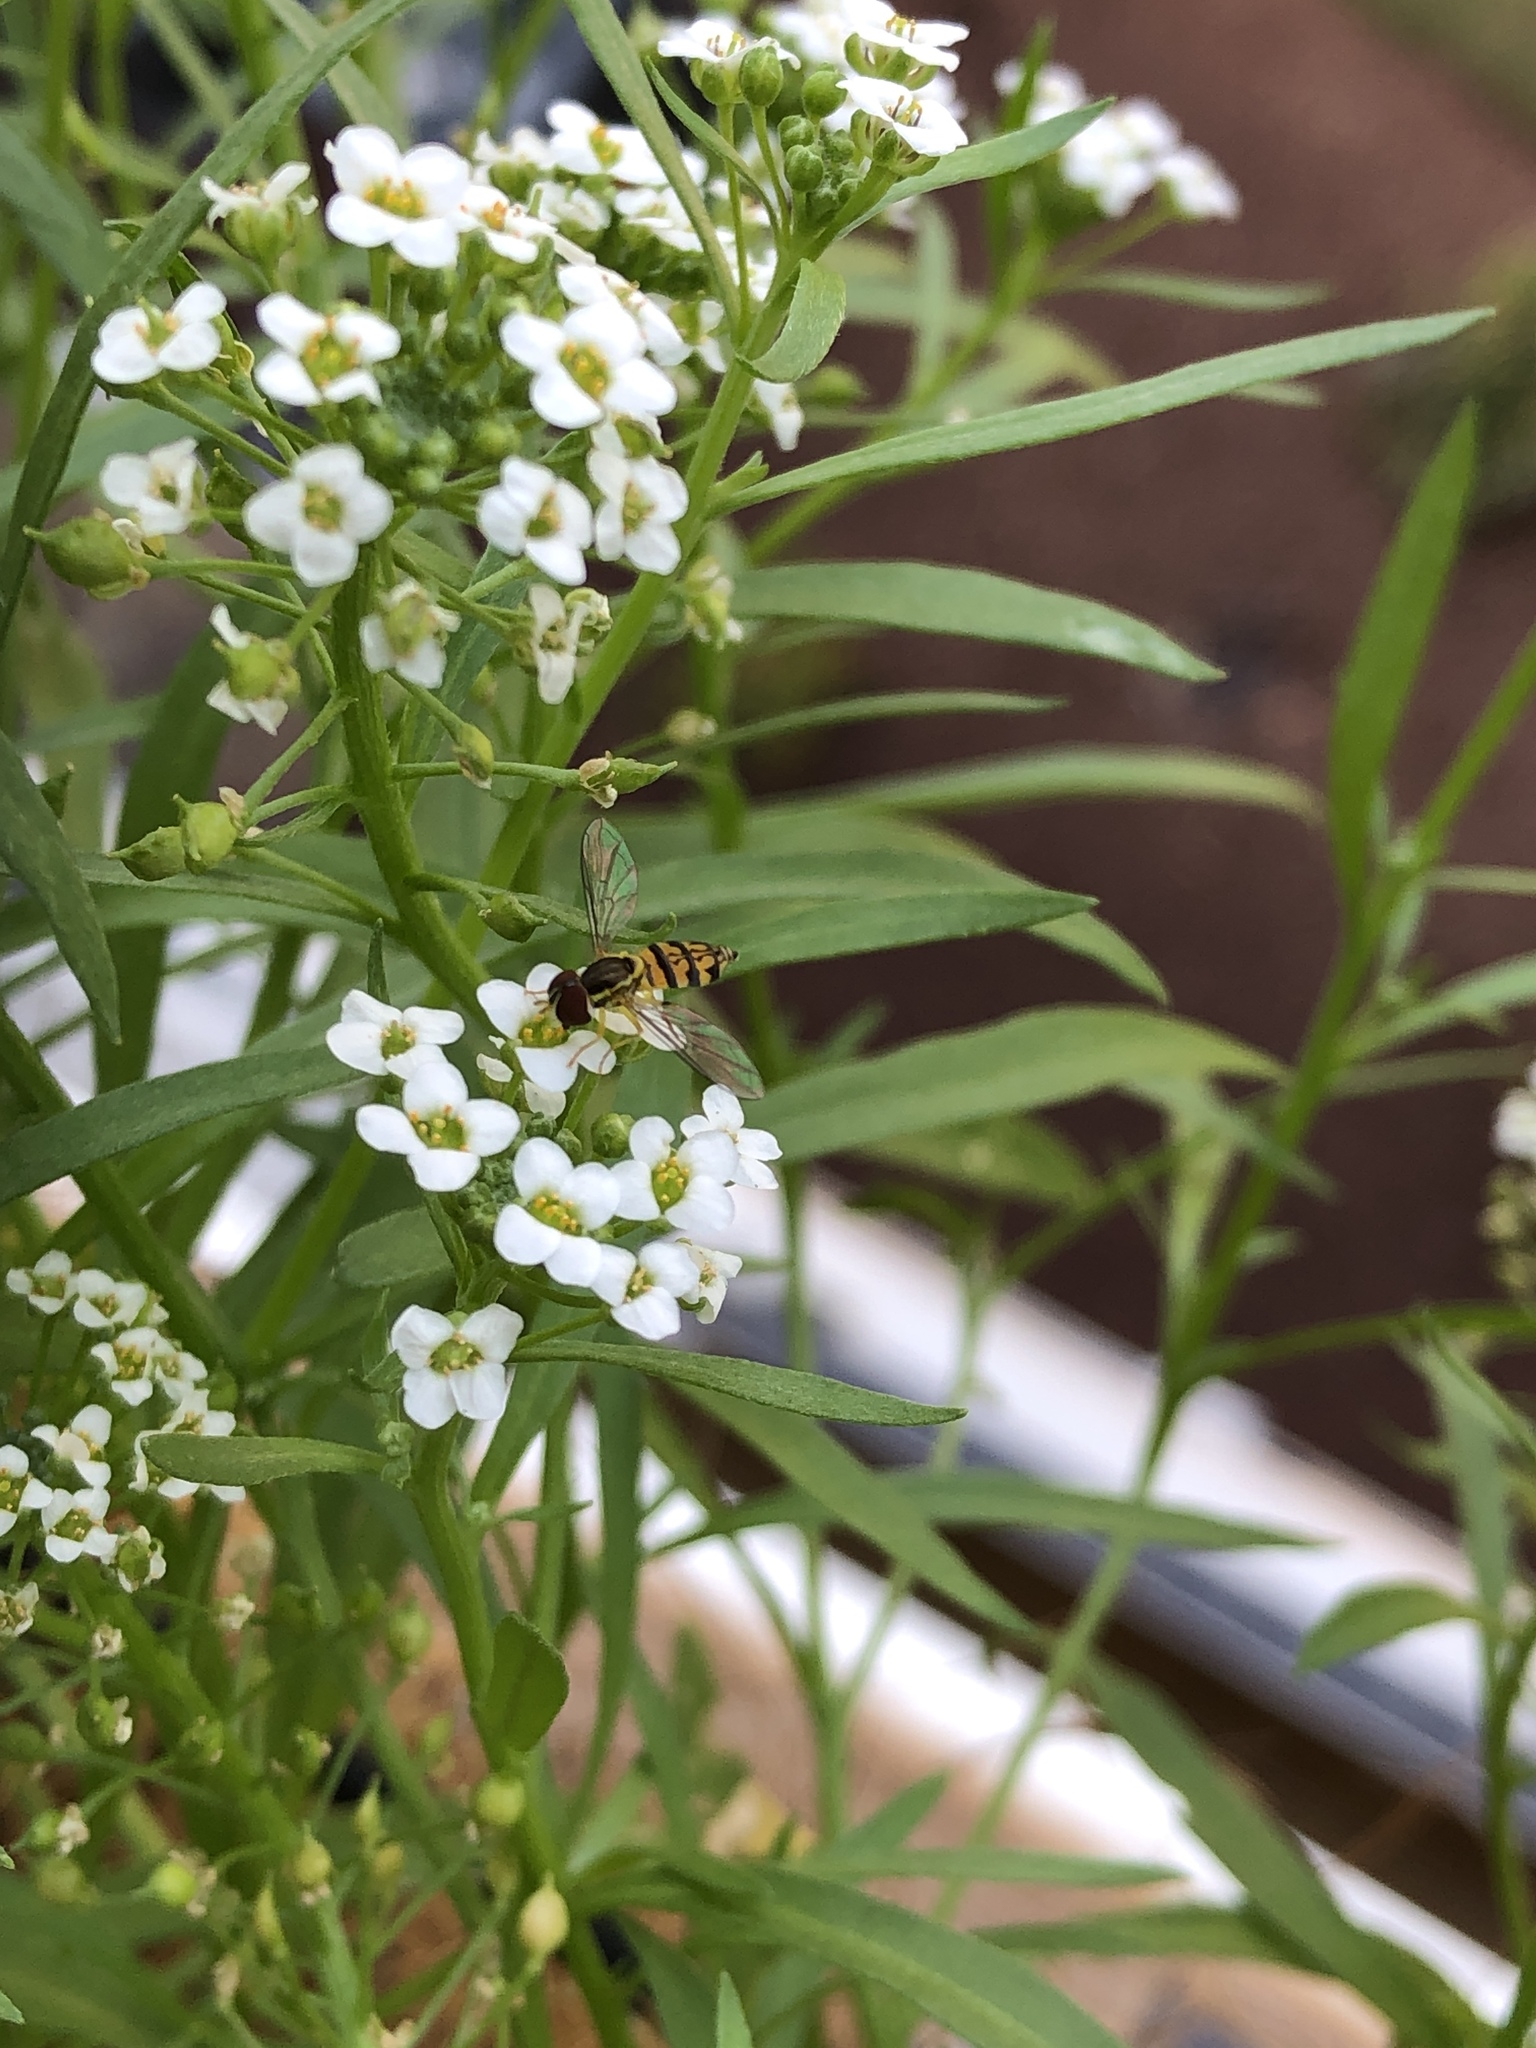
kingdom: Animalia
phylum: Arthropoda
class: Insecta
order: Diptera
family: Syrphidae
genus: Toxomerus
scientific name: Toxomerus geminatus
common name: Eastern calligrapher
